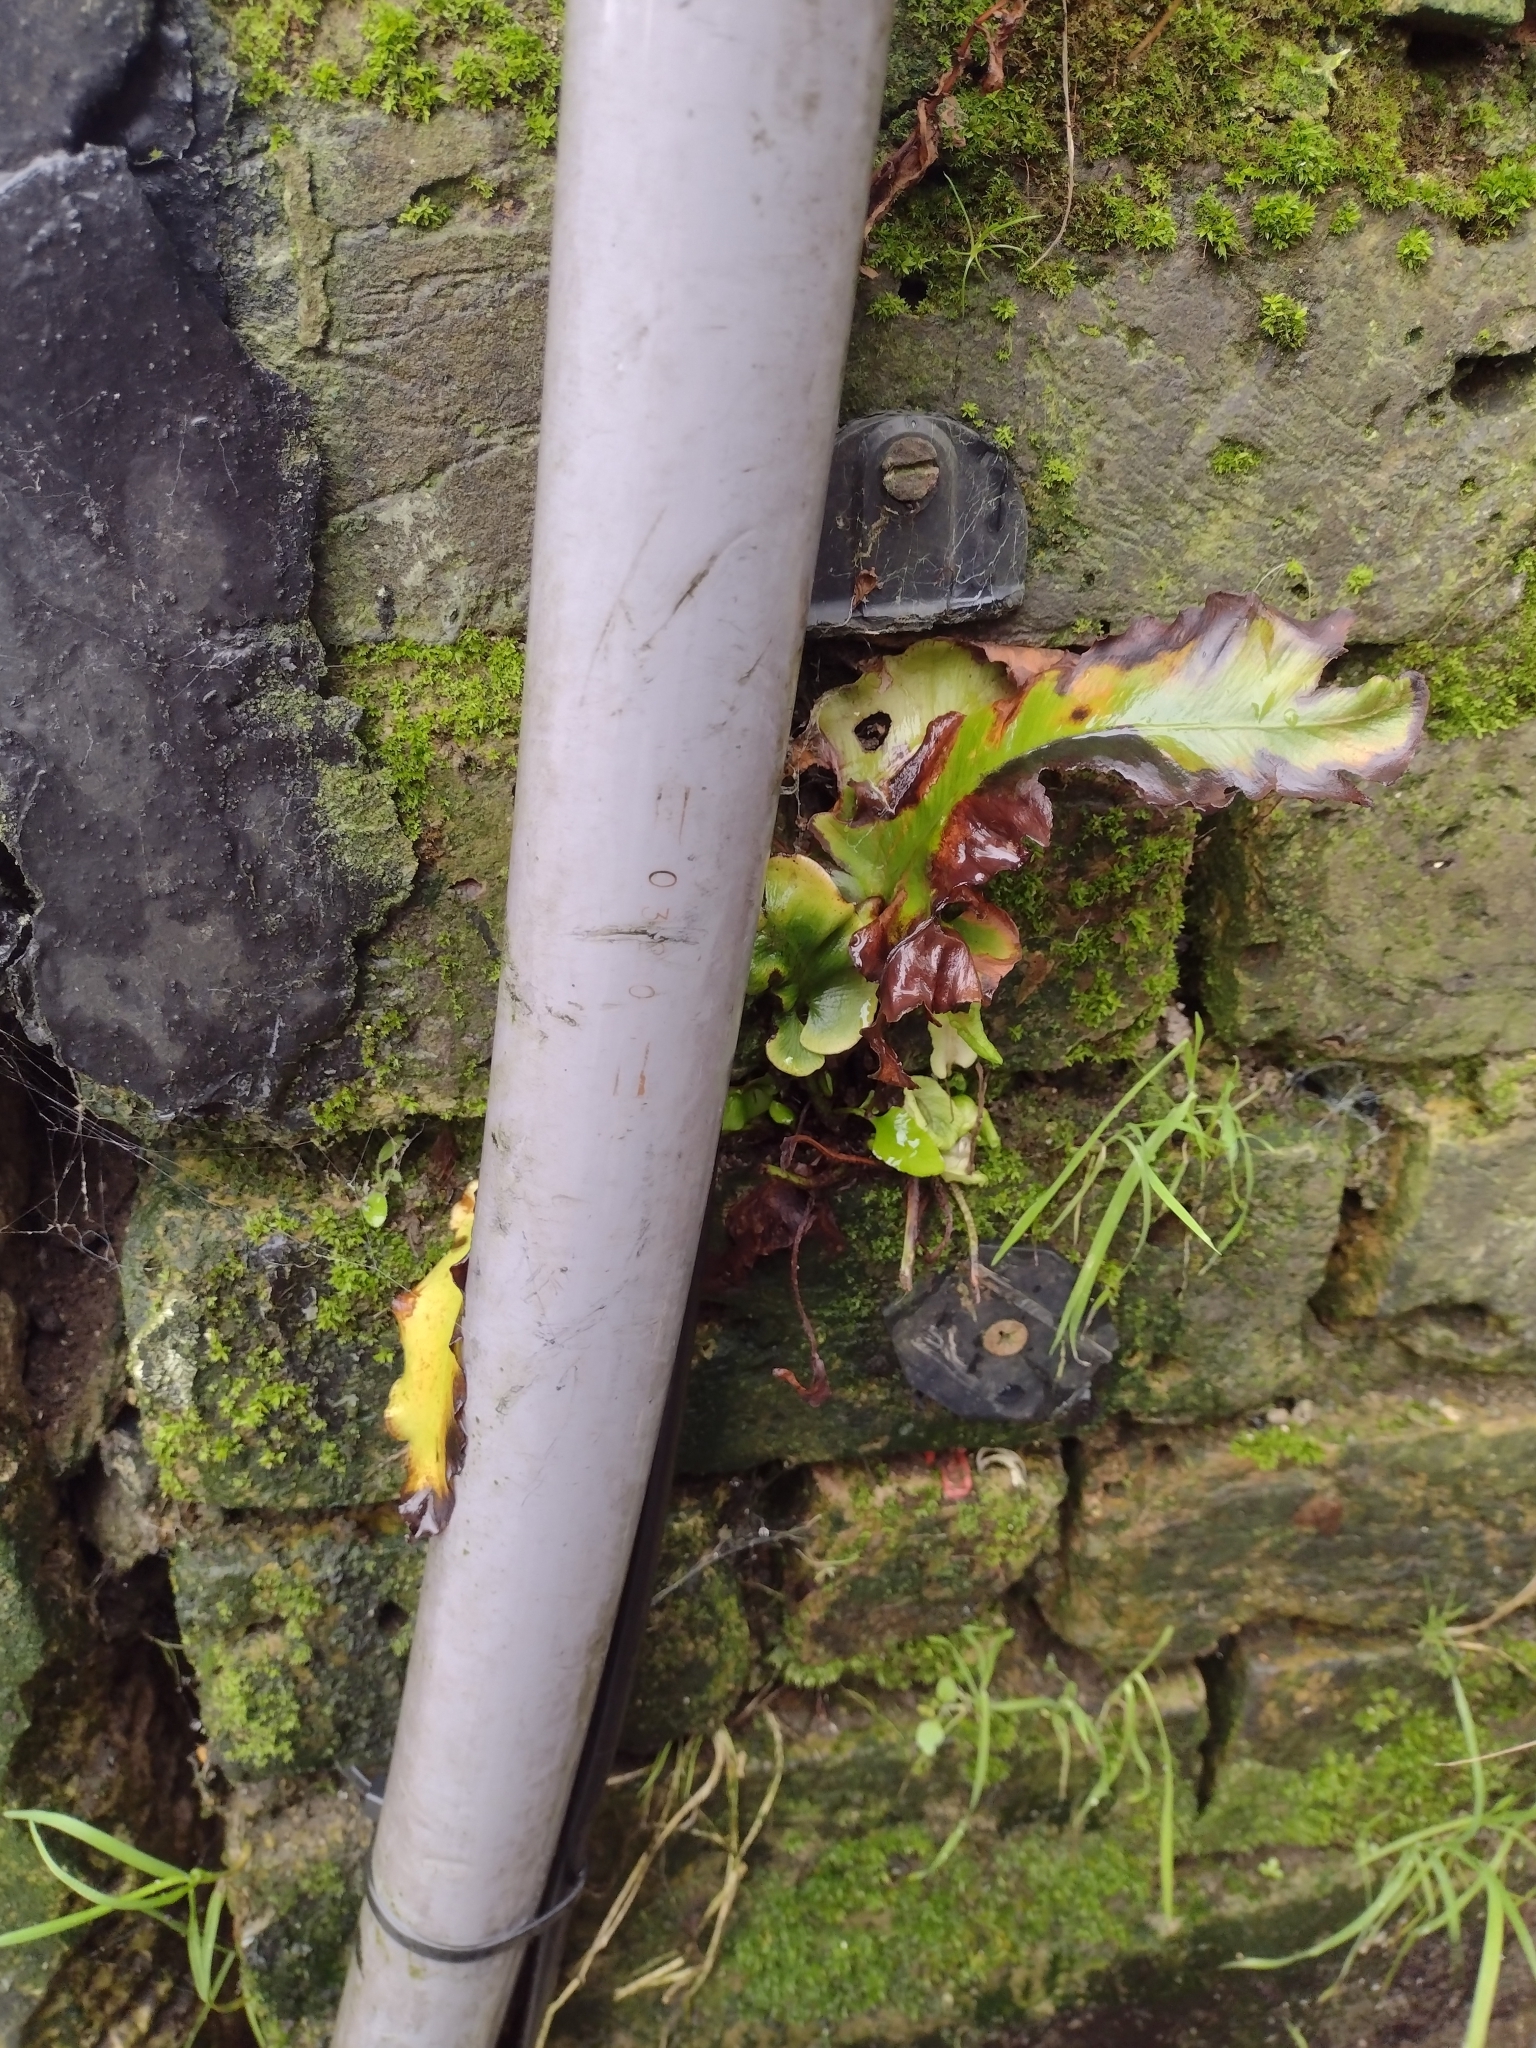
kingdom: Plantae
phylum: Tracheophyta
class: Polypodiopsida
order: Polypodiales
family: Aspleniaceae
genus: Asplenium
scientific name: Asplenium scolopendrium
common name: Hart's-tongue fern
